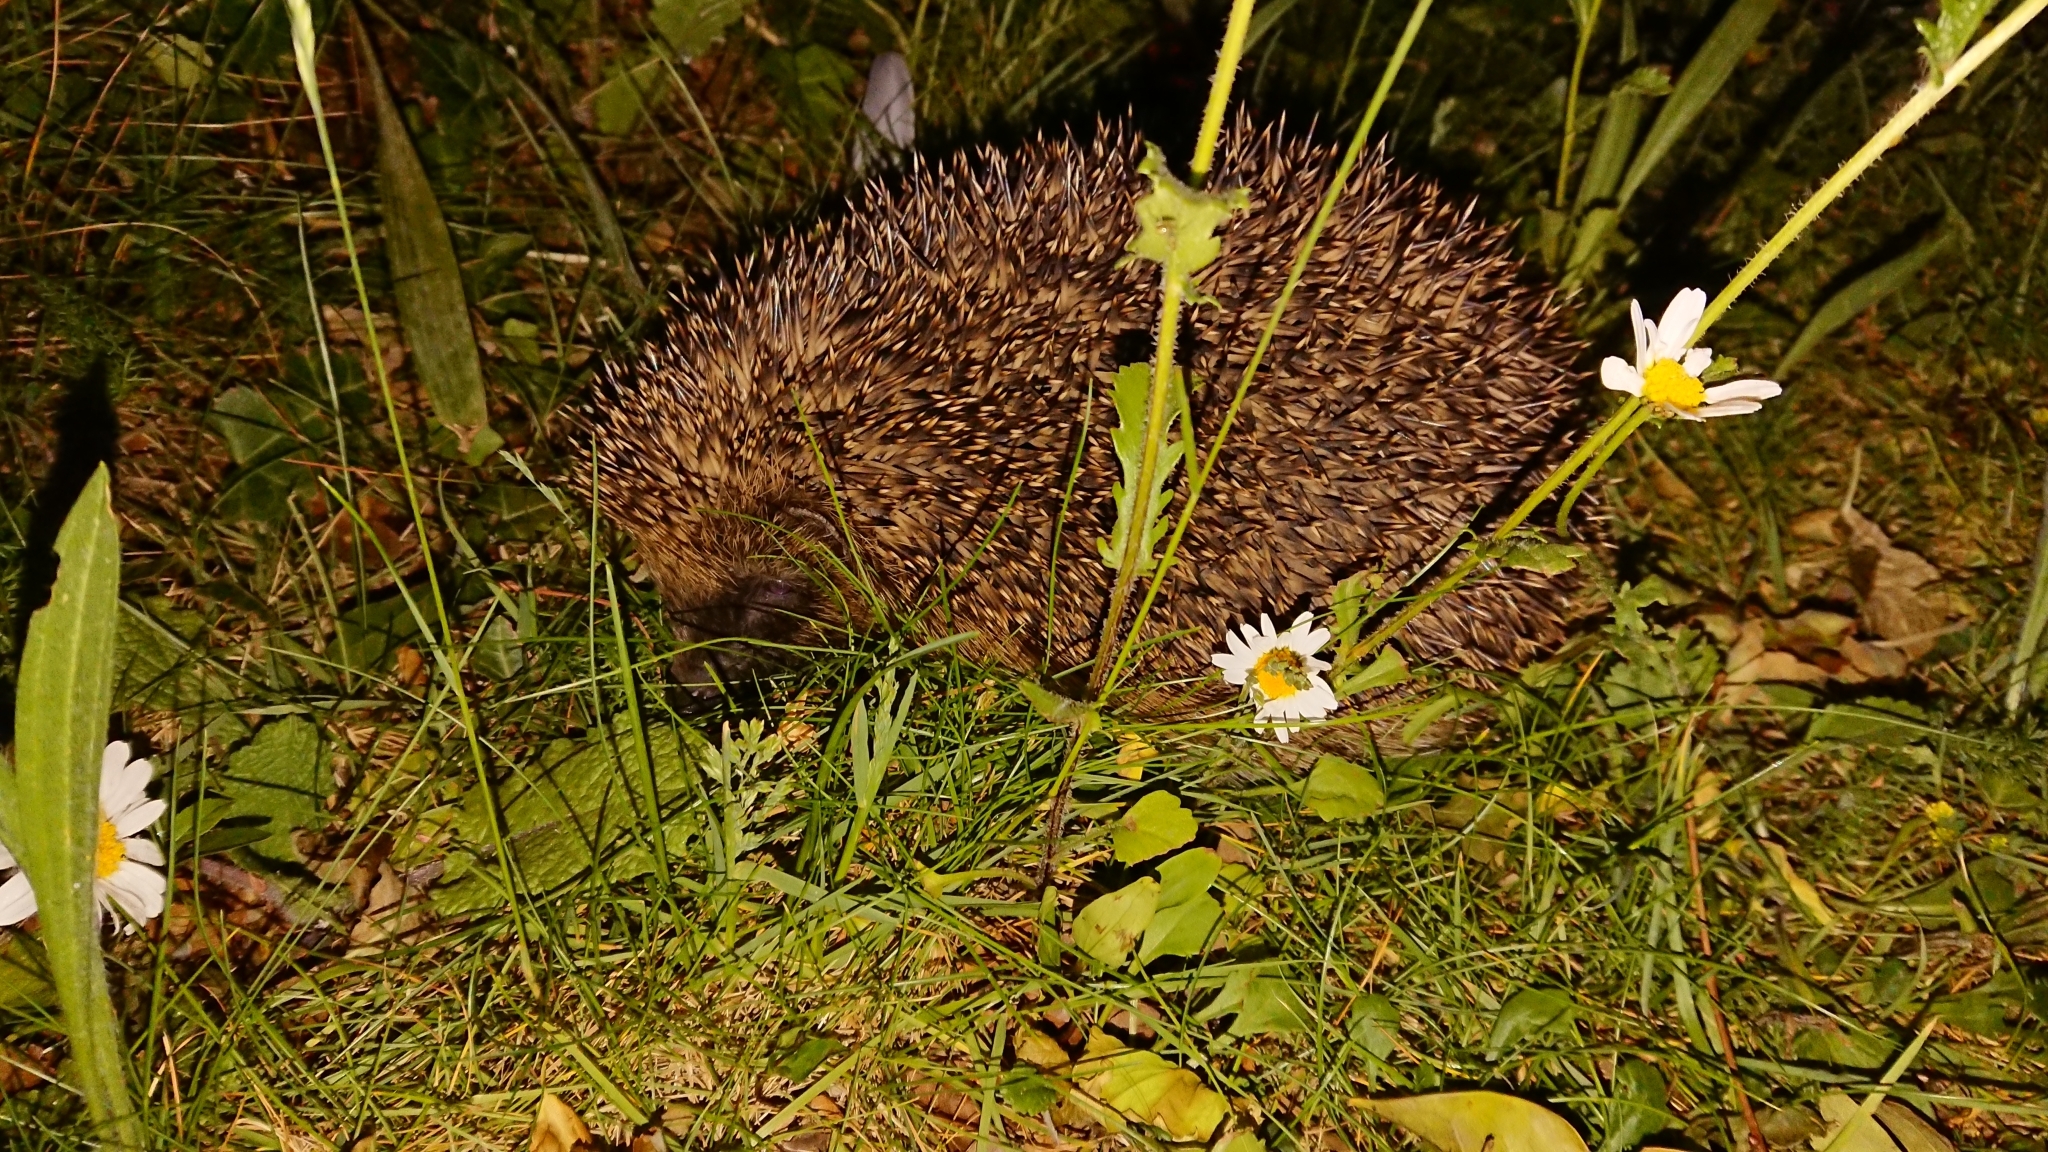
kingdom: Animalia
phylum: Chordata
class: Mammalia
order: Erinaceomorpha
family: Erinaceidae
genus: Erinaceus
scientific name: Erinaceus europaeus
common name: West european hedgehog
